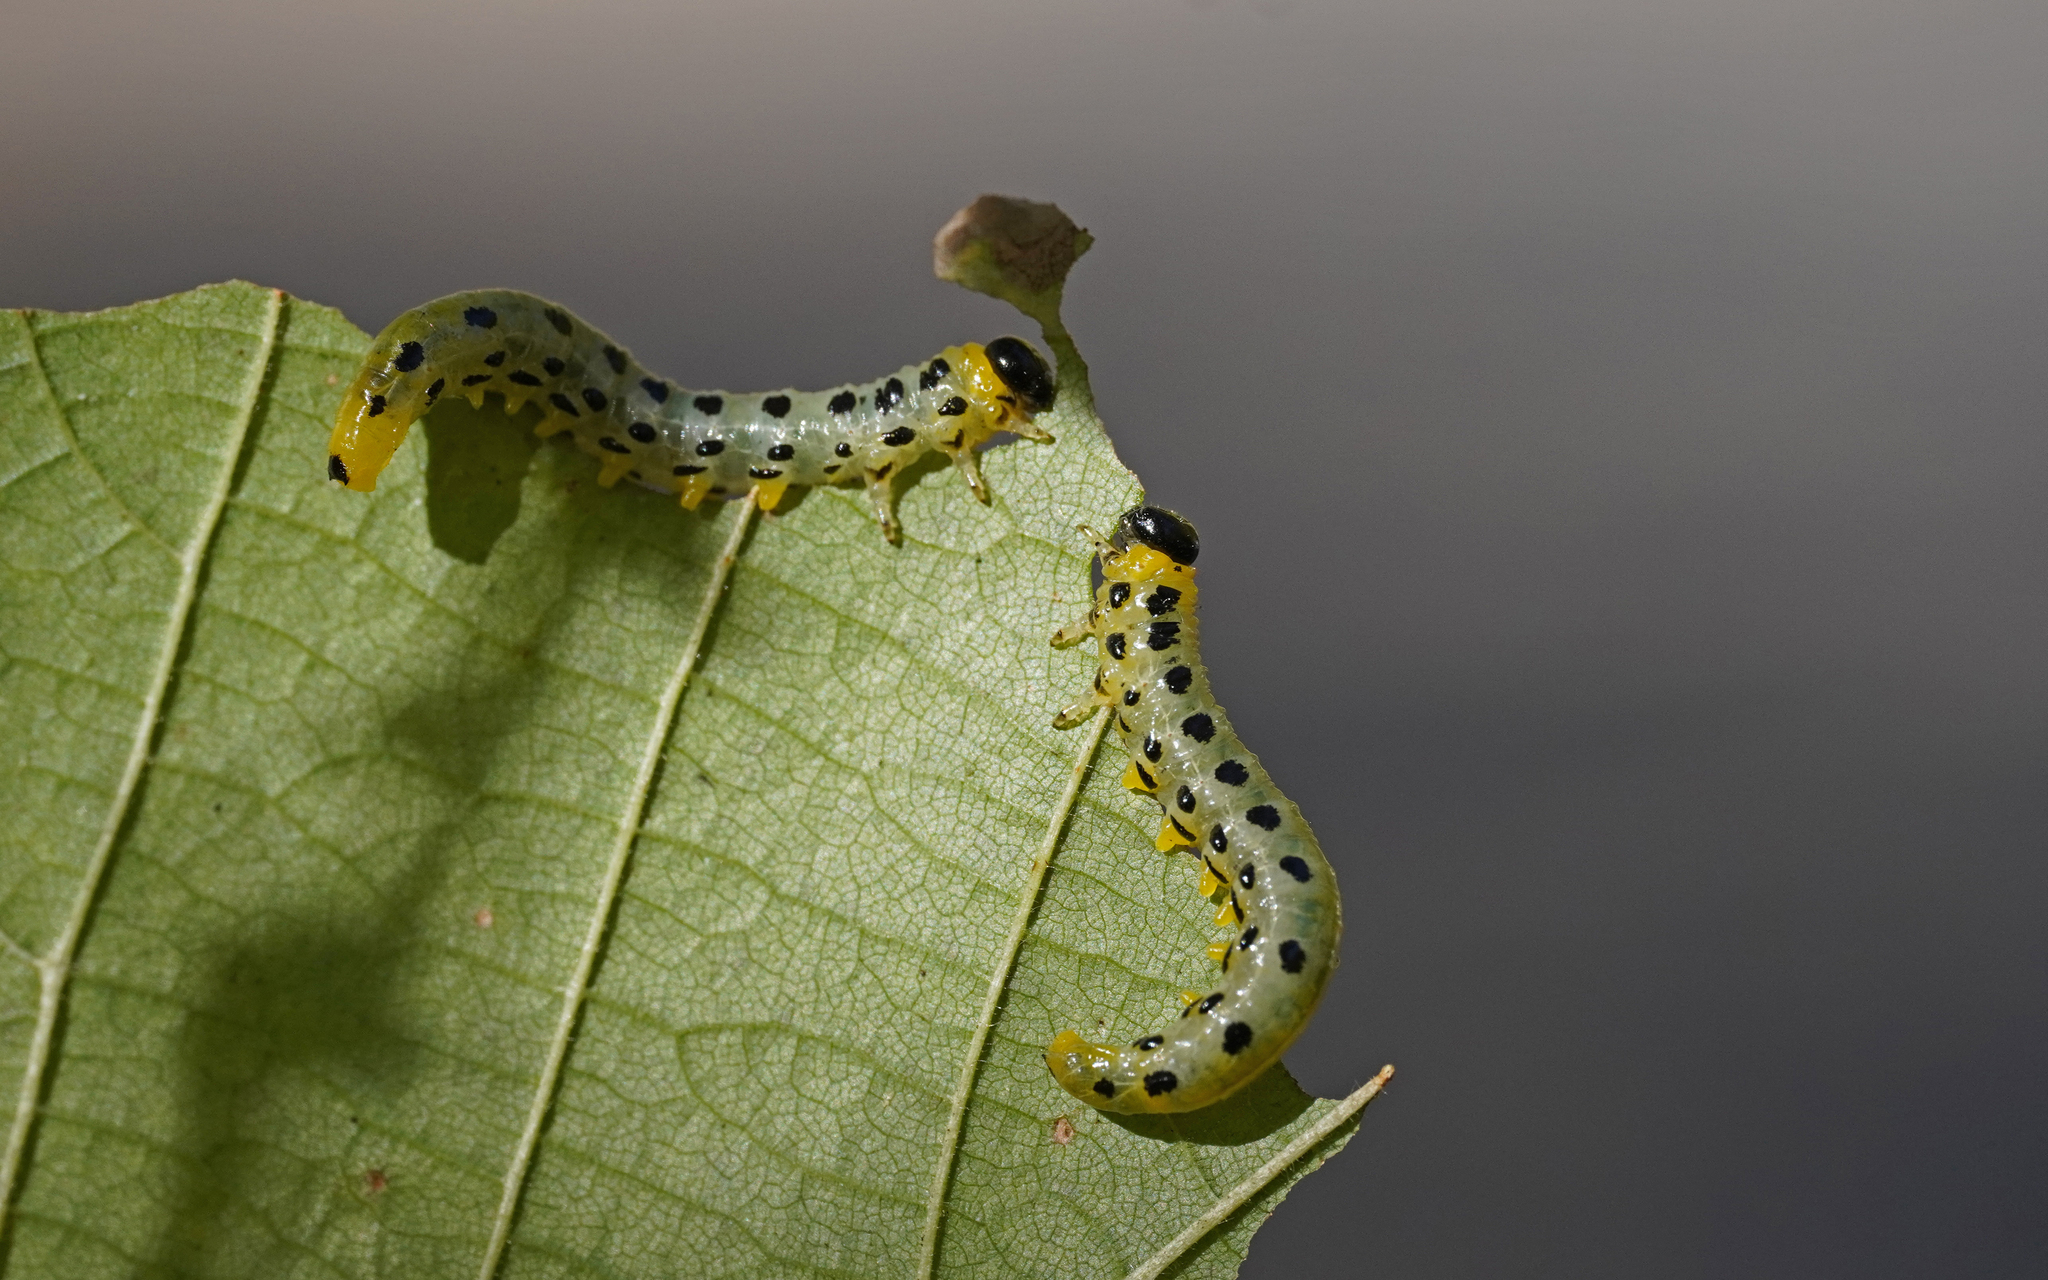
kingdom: Animalia
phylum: Arthropoda
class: Insecta
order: Hymenoptera
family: Tenthredinidae
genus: Craesus
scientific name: Craesus septentrionalis
